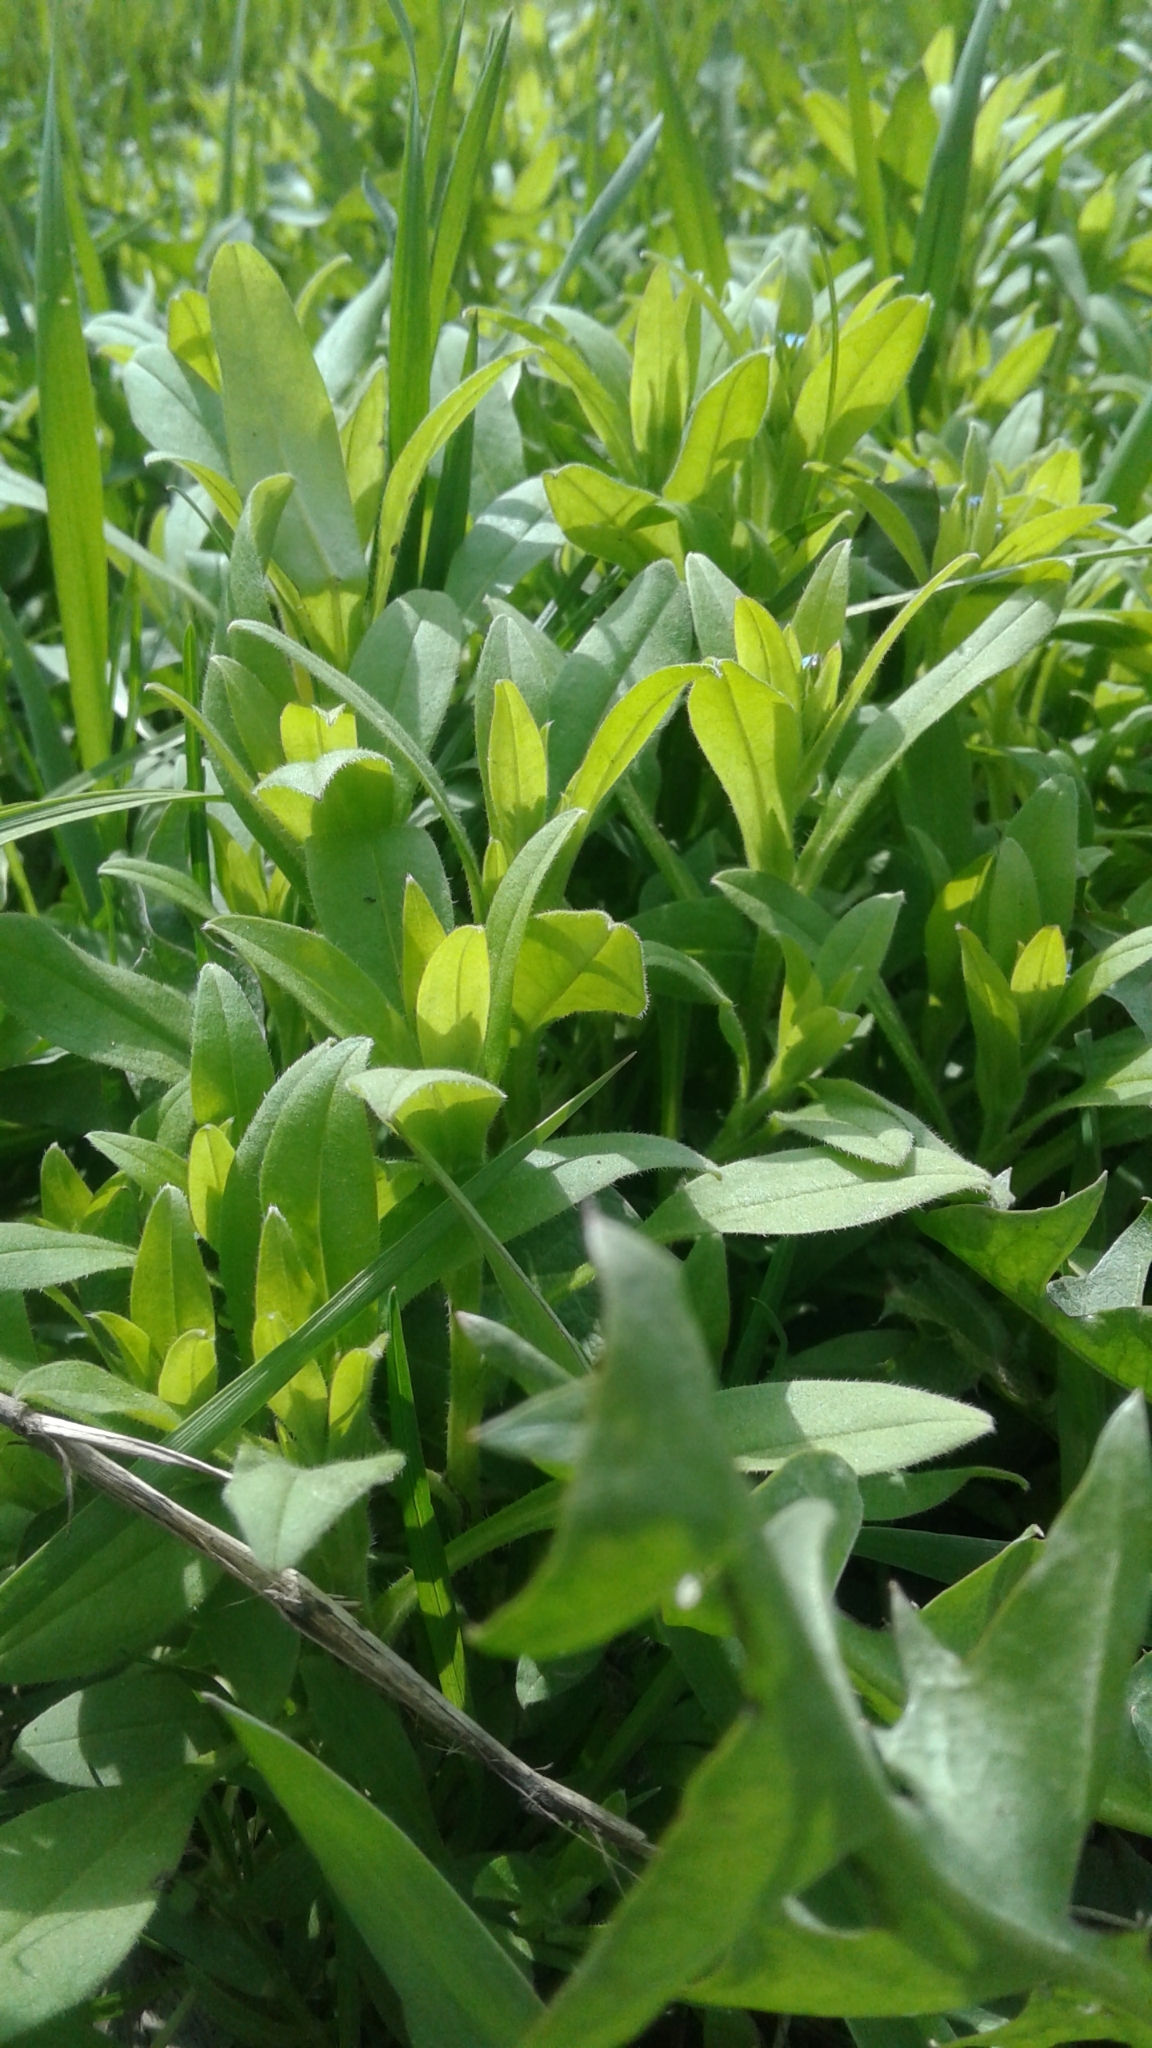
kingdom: Plantae
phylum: Tracheophyta
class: Magnoliopsida
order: Boraginales
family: Boraginaceae
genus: Myosotis
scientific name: Myosotis sparsiflora
